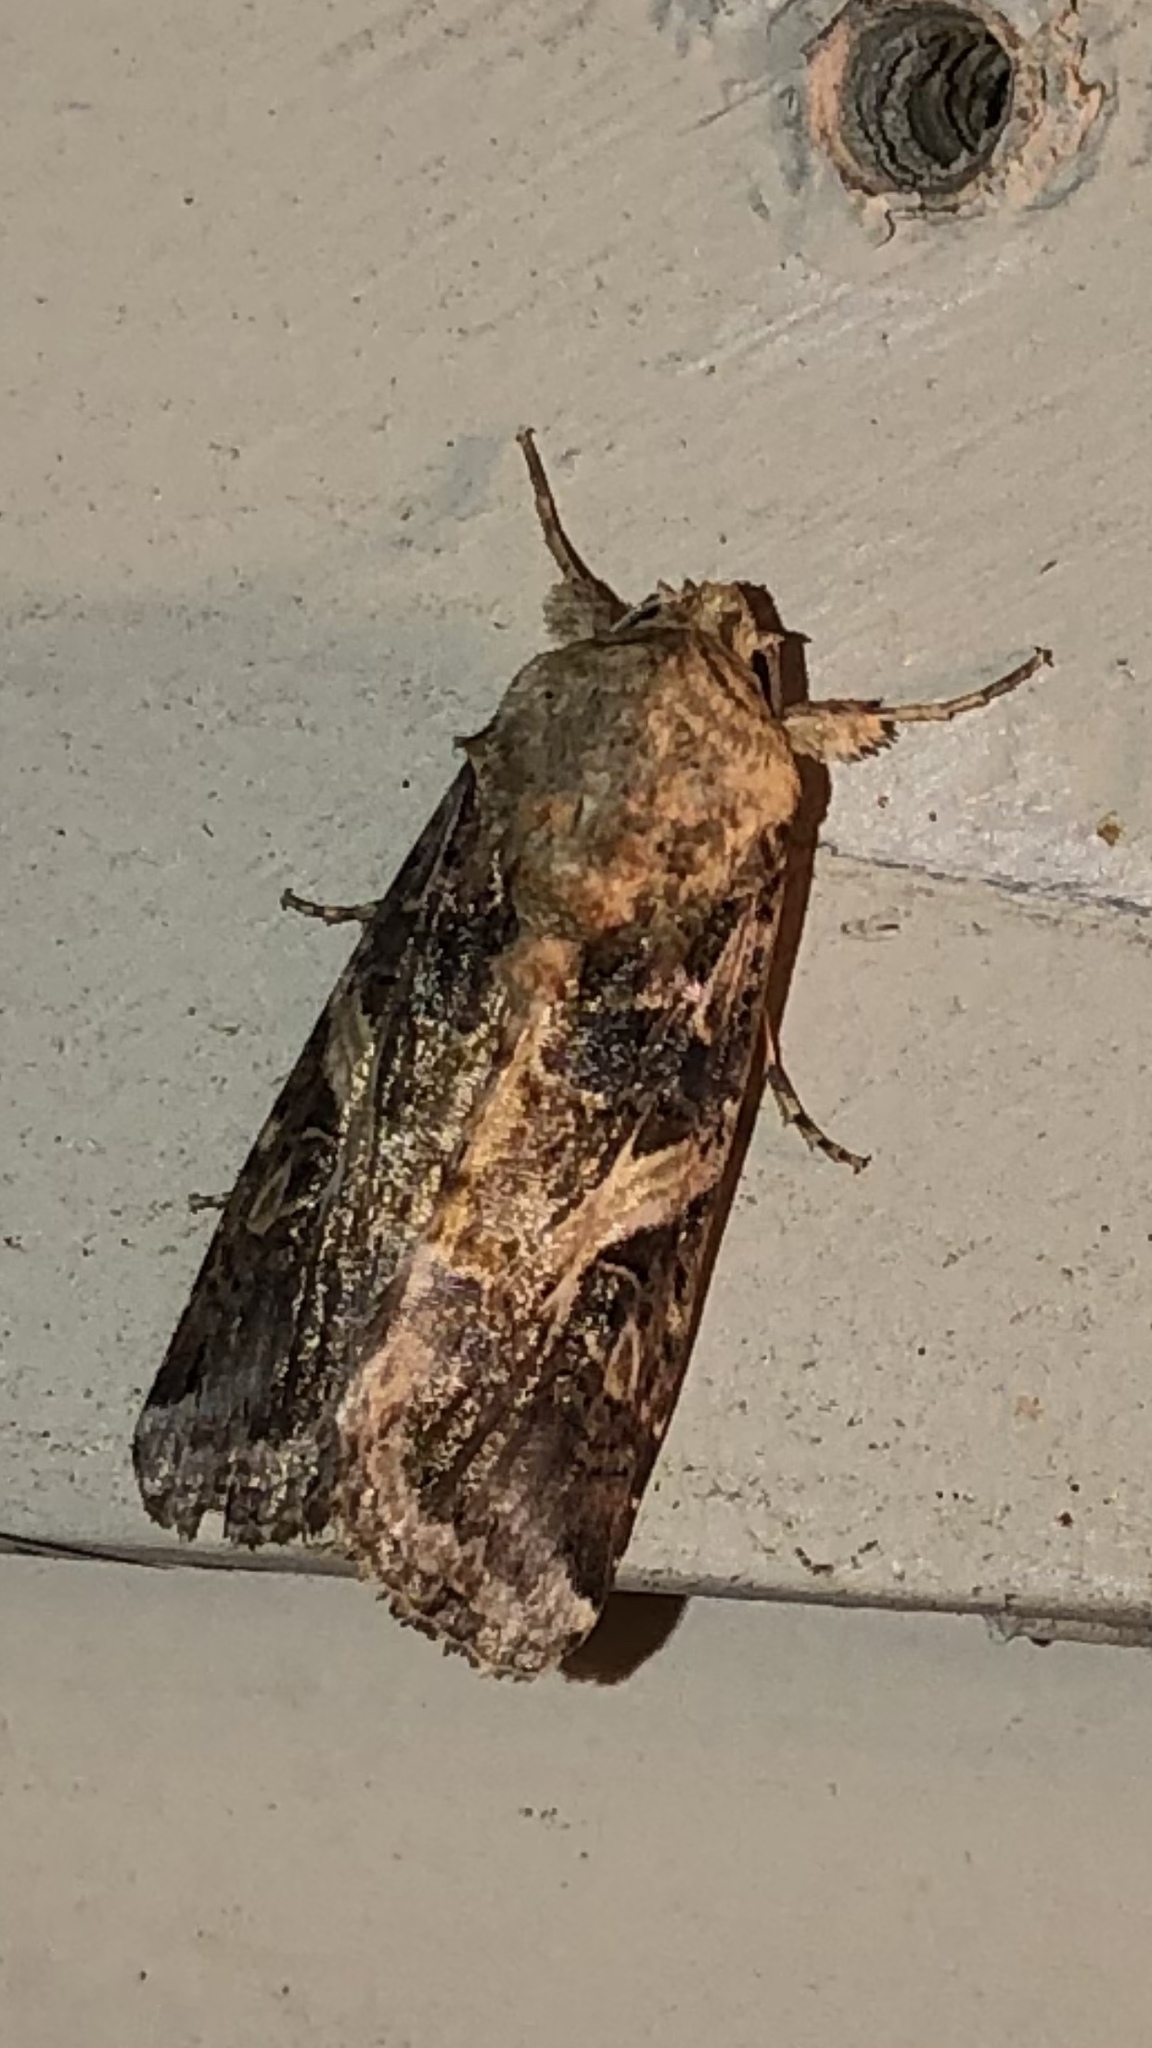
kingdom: Animalia
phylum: Arthropoda
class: Insecta
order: Lepidoptera
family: Noctuidae
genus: Spodoptera
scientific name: Spodoptera ornithogalli
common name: Yellow-striped armyworm
